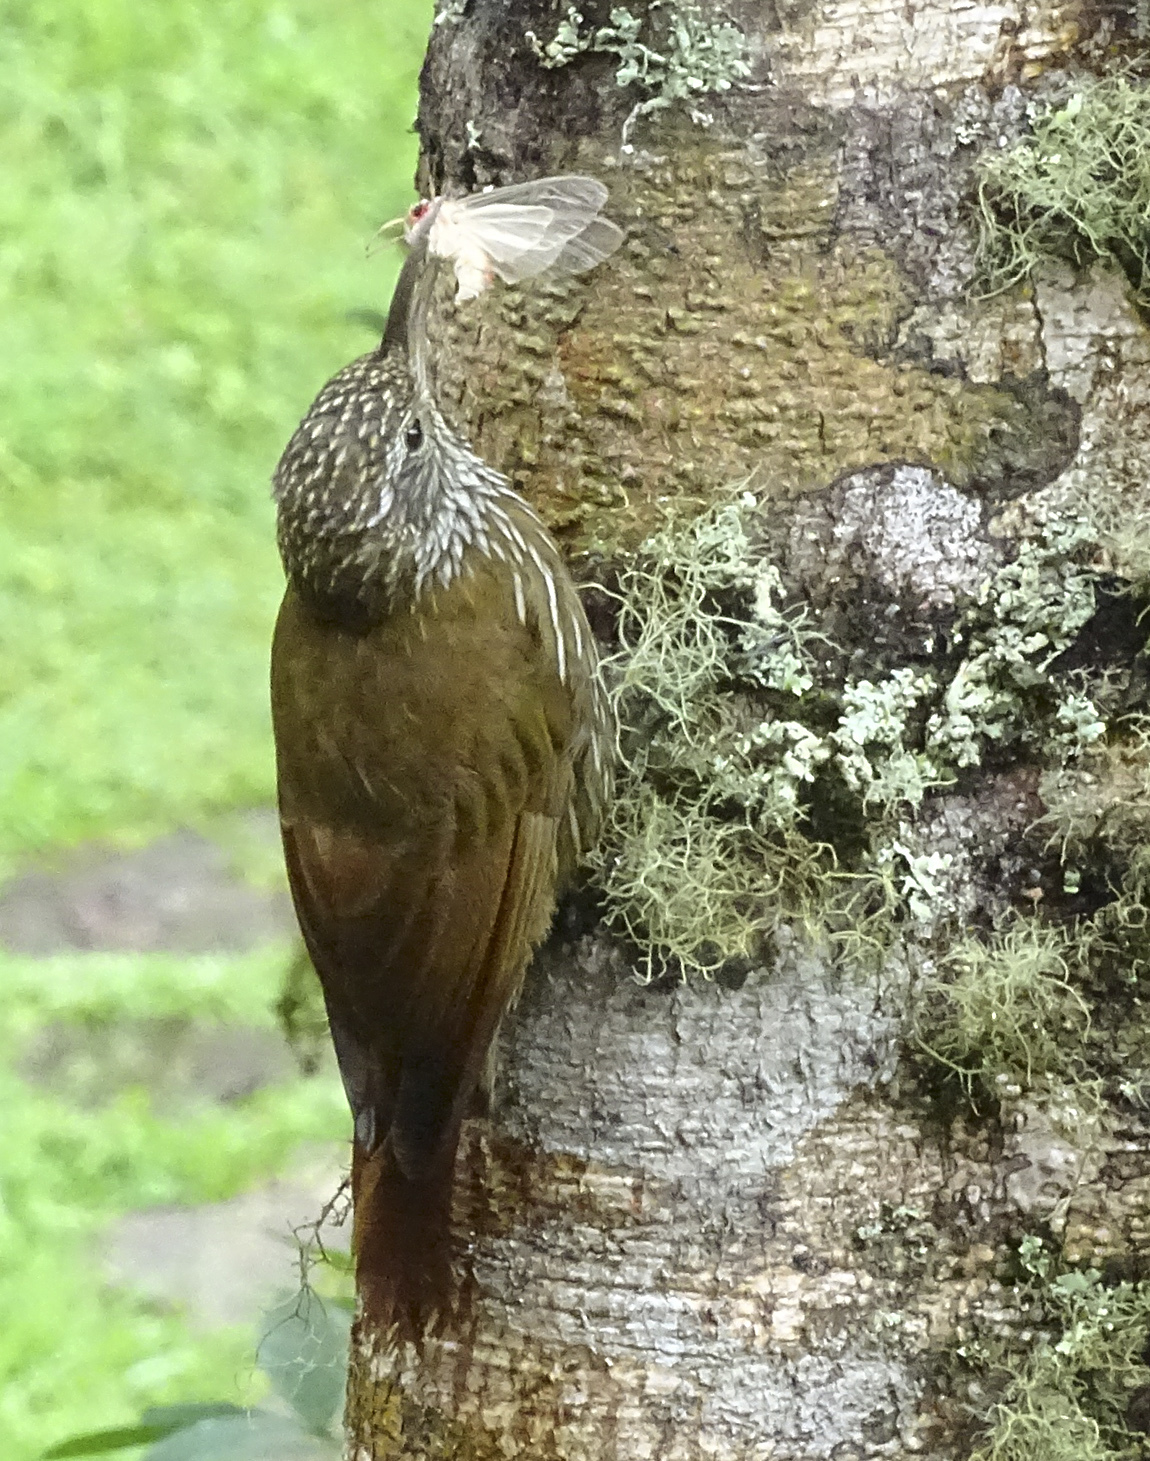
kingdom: Animalia
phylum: Chordata
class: Aves
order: Passeriformes
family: Furnariidae
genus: Lepidocolaptes
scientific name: Lepidocolaptes lacrymiger
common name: Montane woodcreeper
